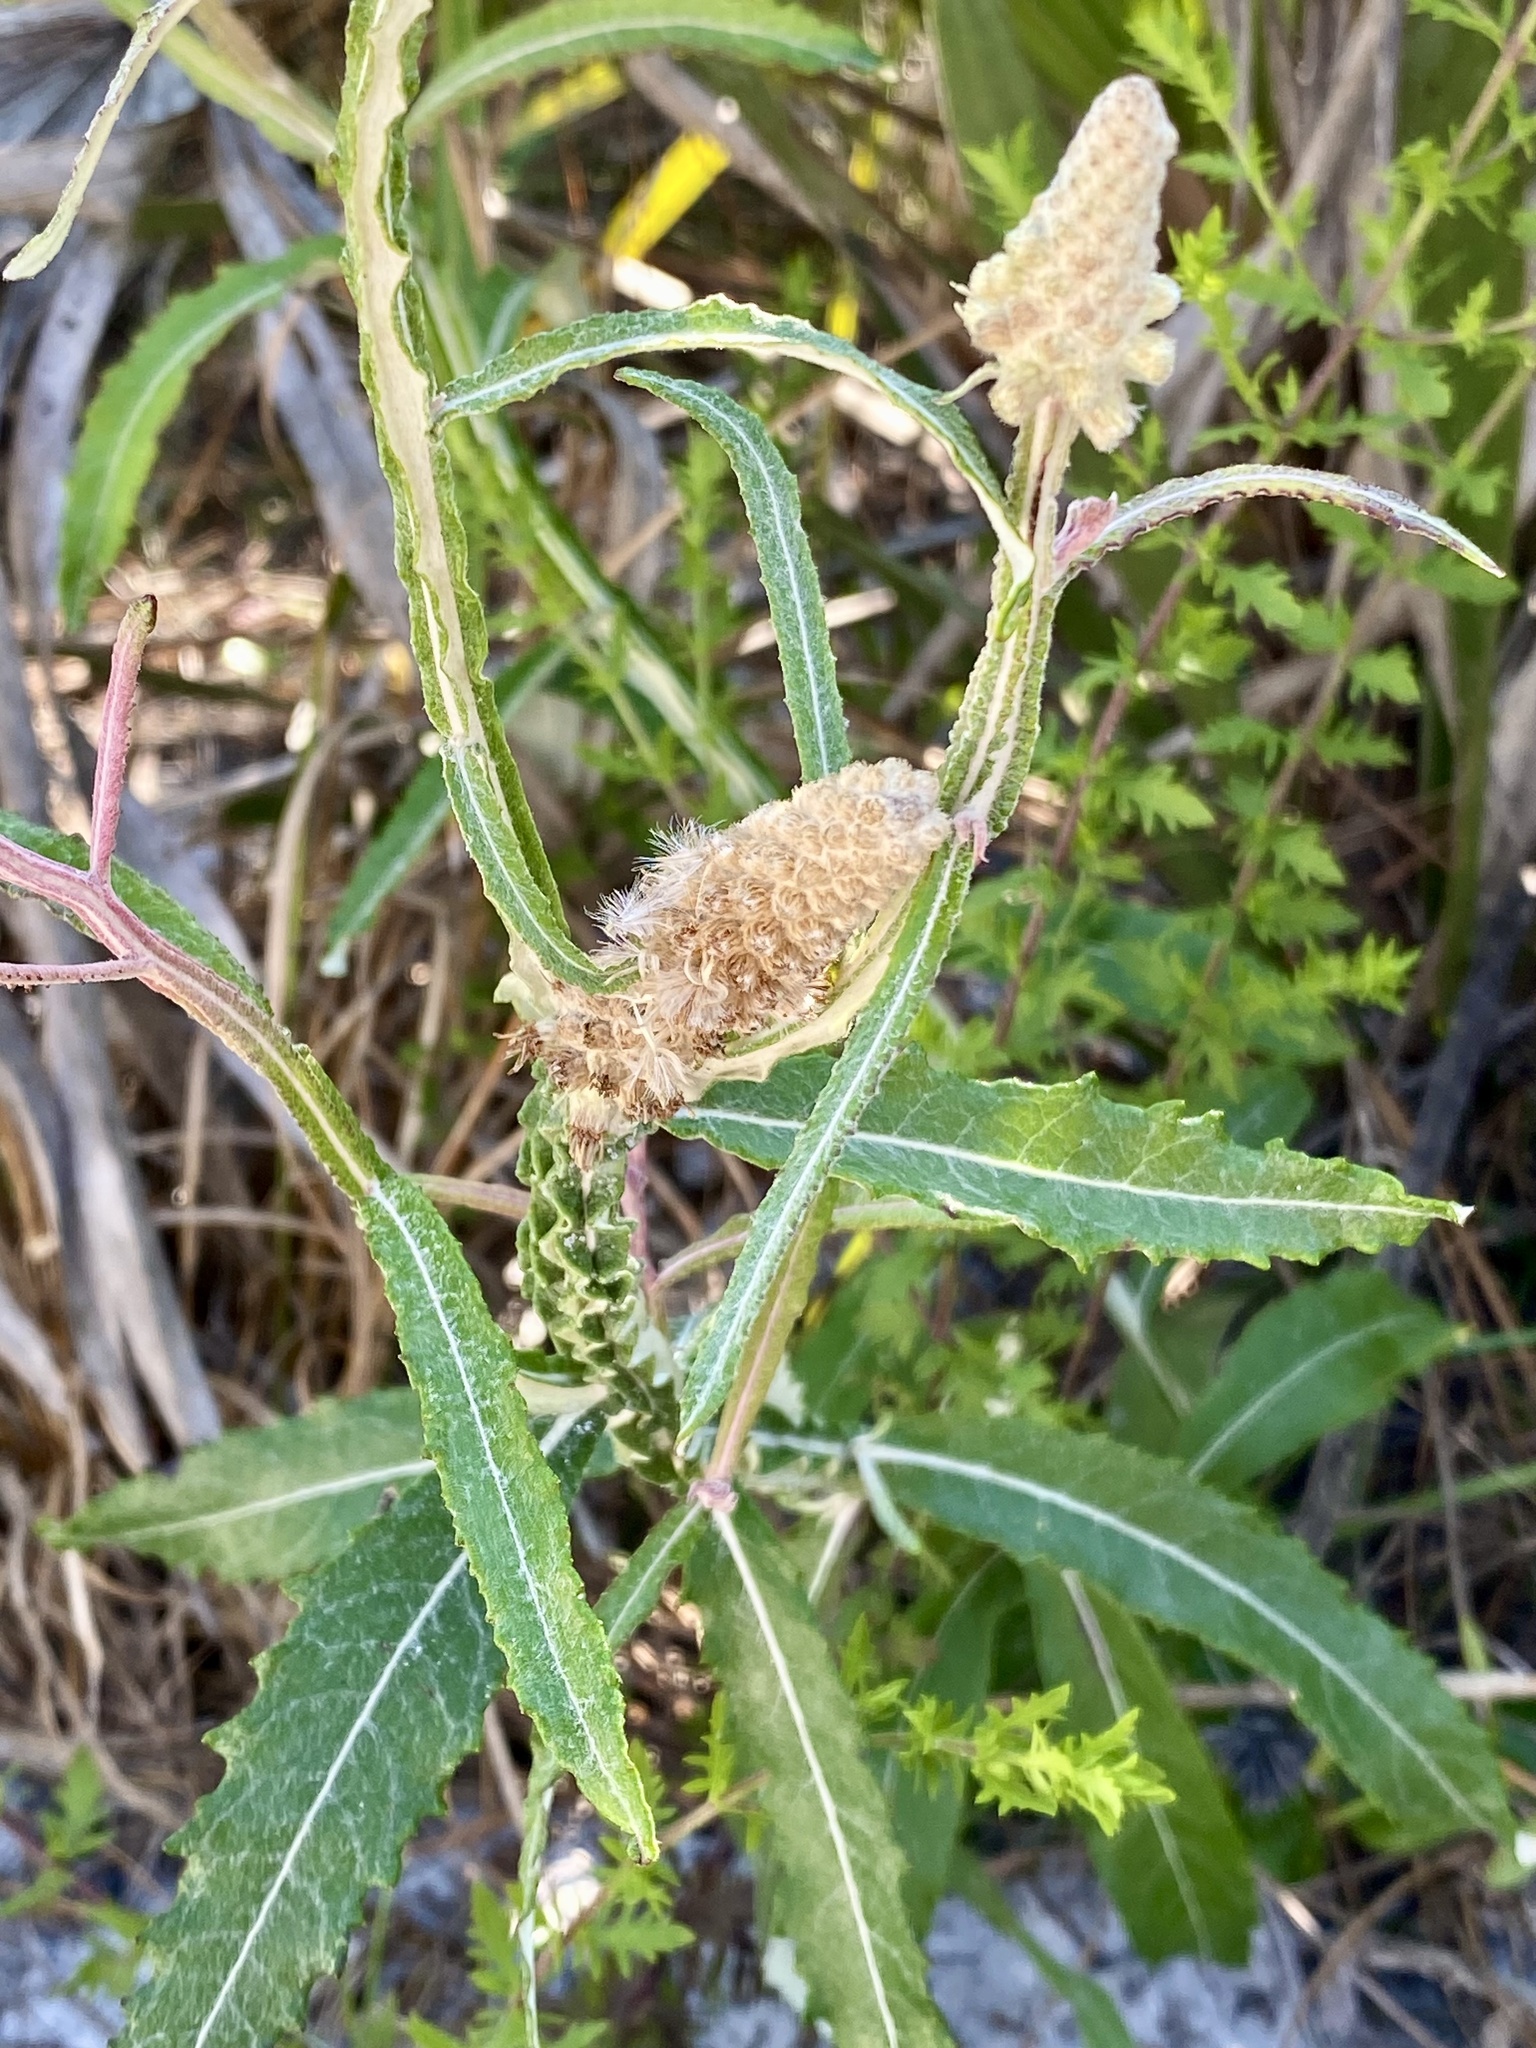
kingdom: Plantae
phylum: Tracheophyta
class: Magnoliopsida
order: Asterales
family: Asteraceae
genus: Pterocaulon
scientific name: Pterocaulon pycnostachyum
